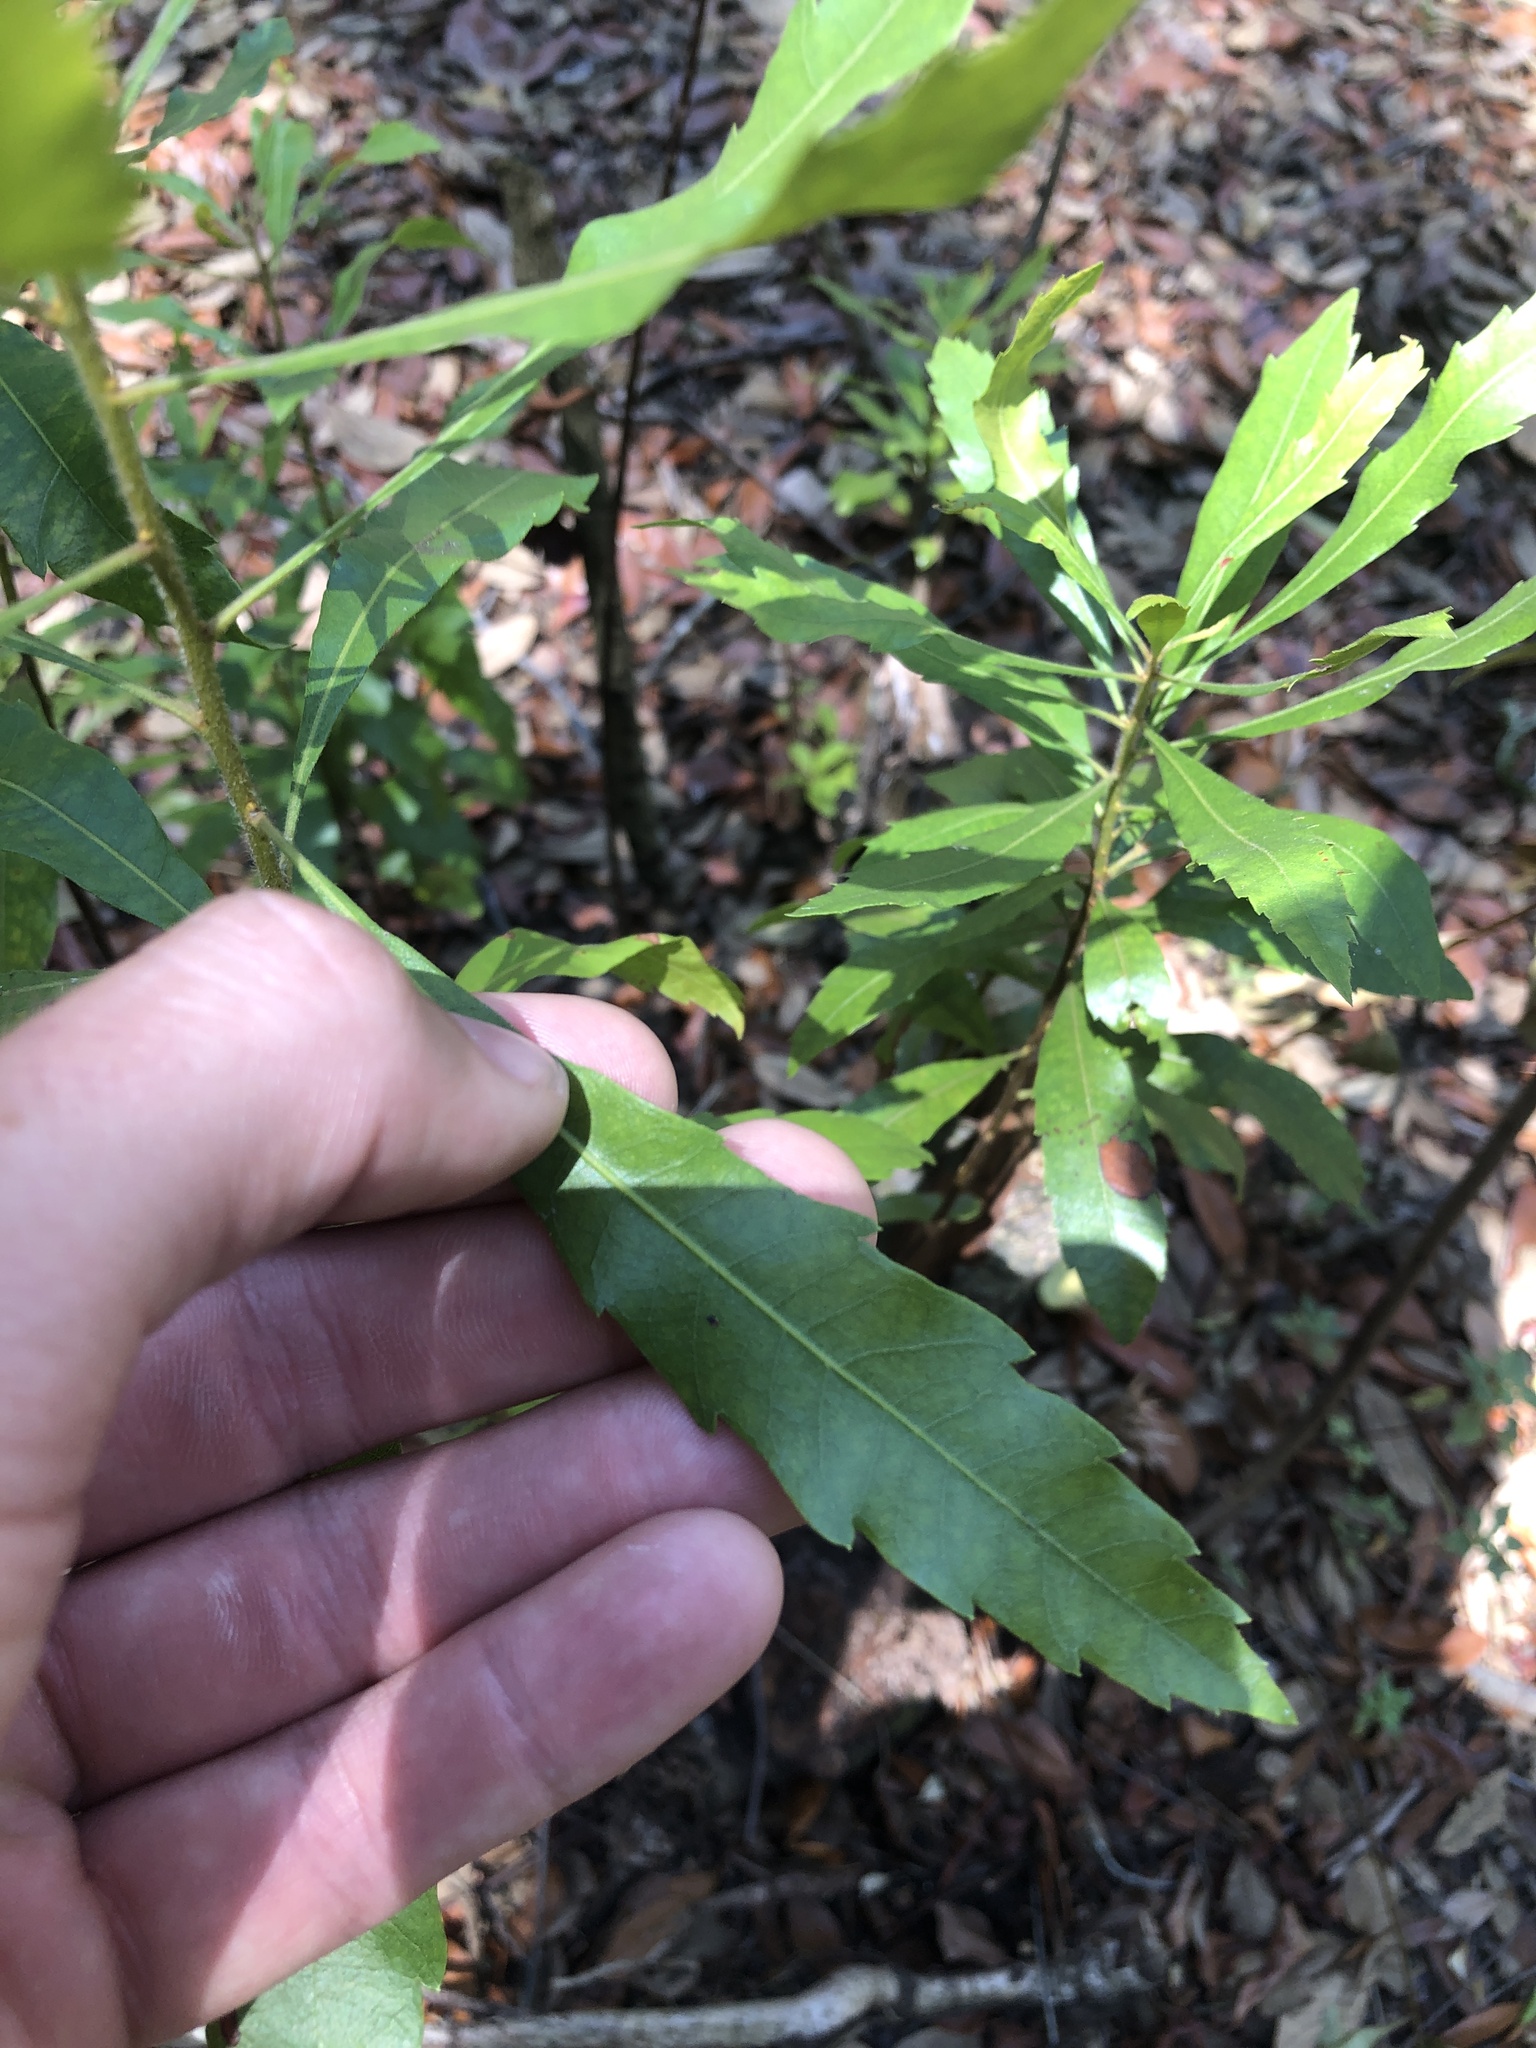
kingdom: Plantae
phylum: Tracheophyta
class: Magnoliopsida
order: Fagales
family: Myricaceae
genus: Morella
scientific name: Morella cerifera
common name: Wax myrtle
